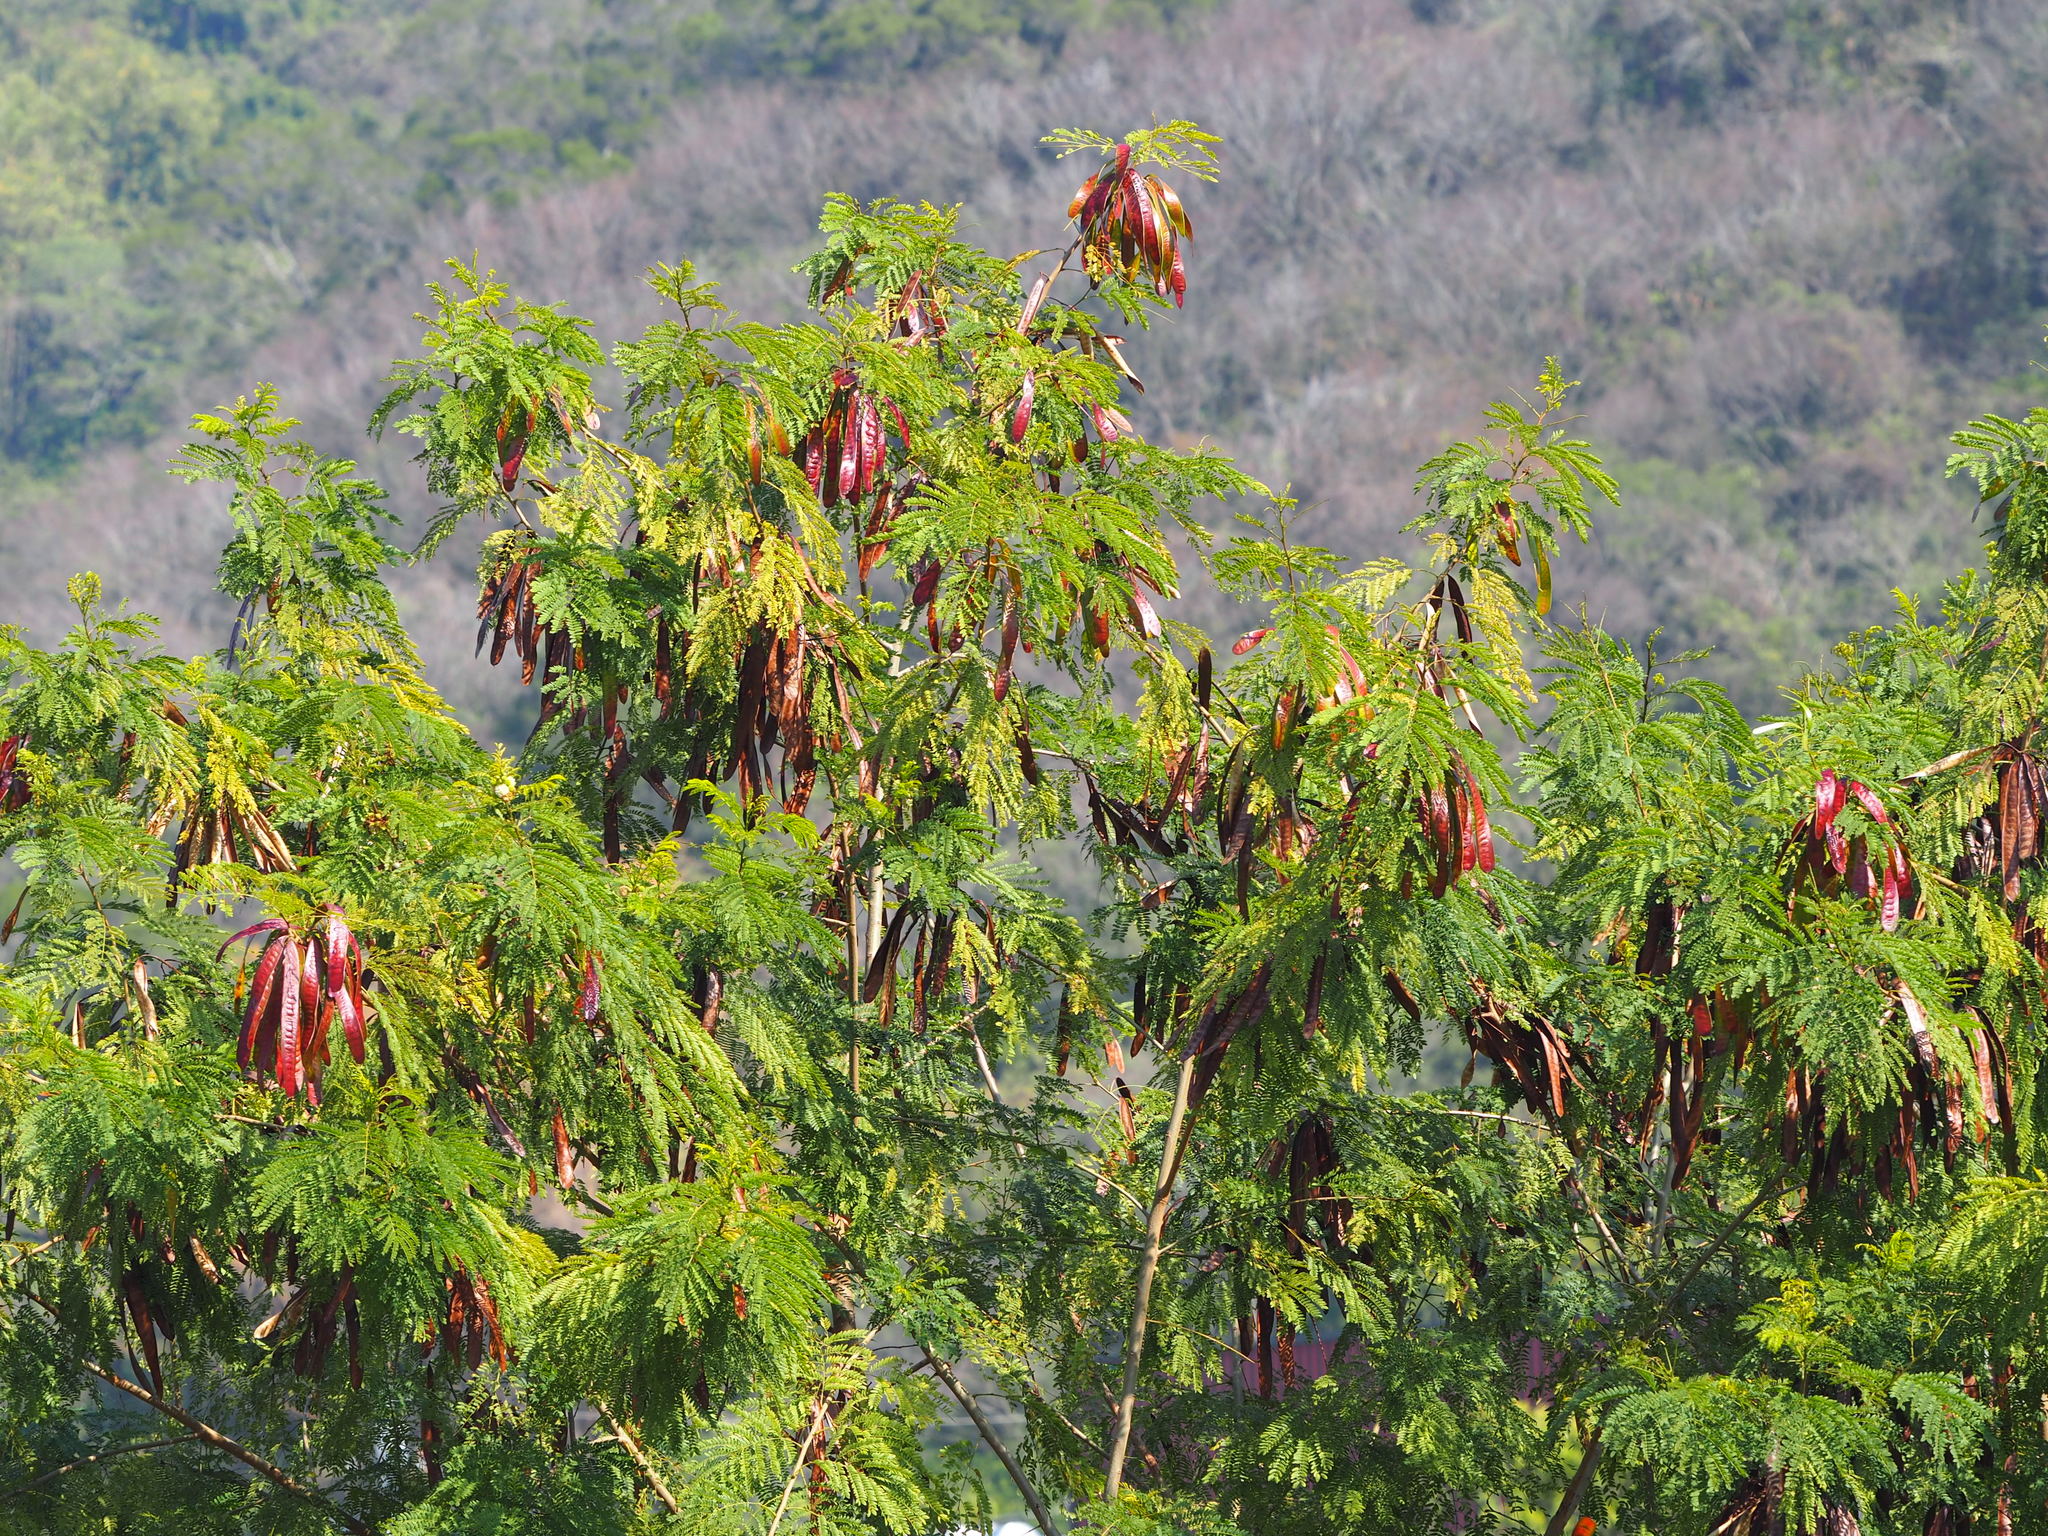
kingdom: Plantae
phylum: Tracheophyta
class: Magnoliopsida
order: Fabales
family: Fabaceae
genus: Leucaena
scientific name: Leucaena leucocephala
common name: White leadtree
